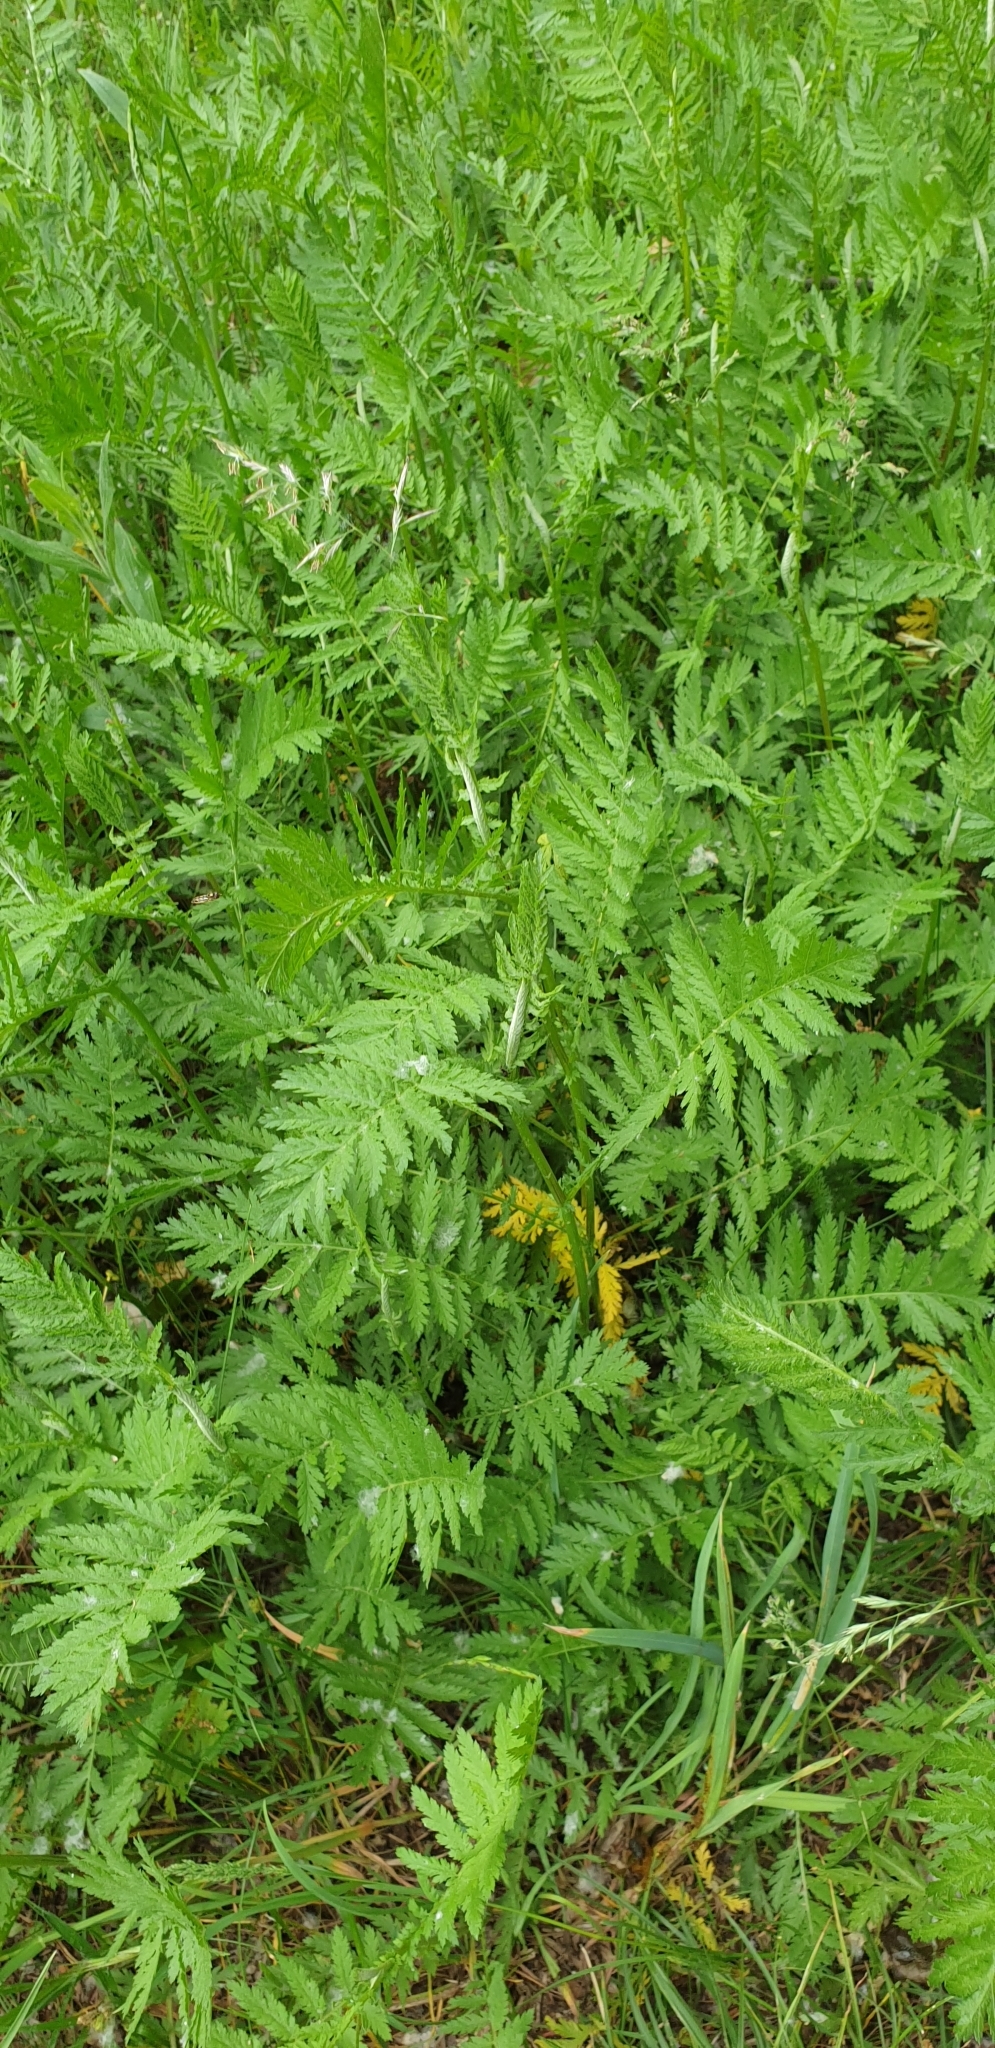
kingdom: Plantae
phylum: Tracheophyta
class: Magnoliopsida
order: Asterales
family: Asteraceae
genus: Tanacetum
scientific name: Tanacetum vulgare
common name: Common tansy
